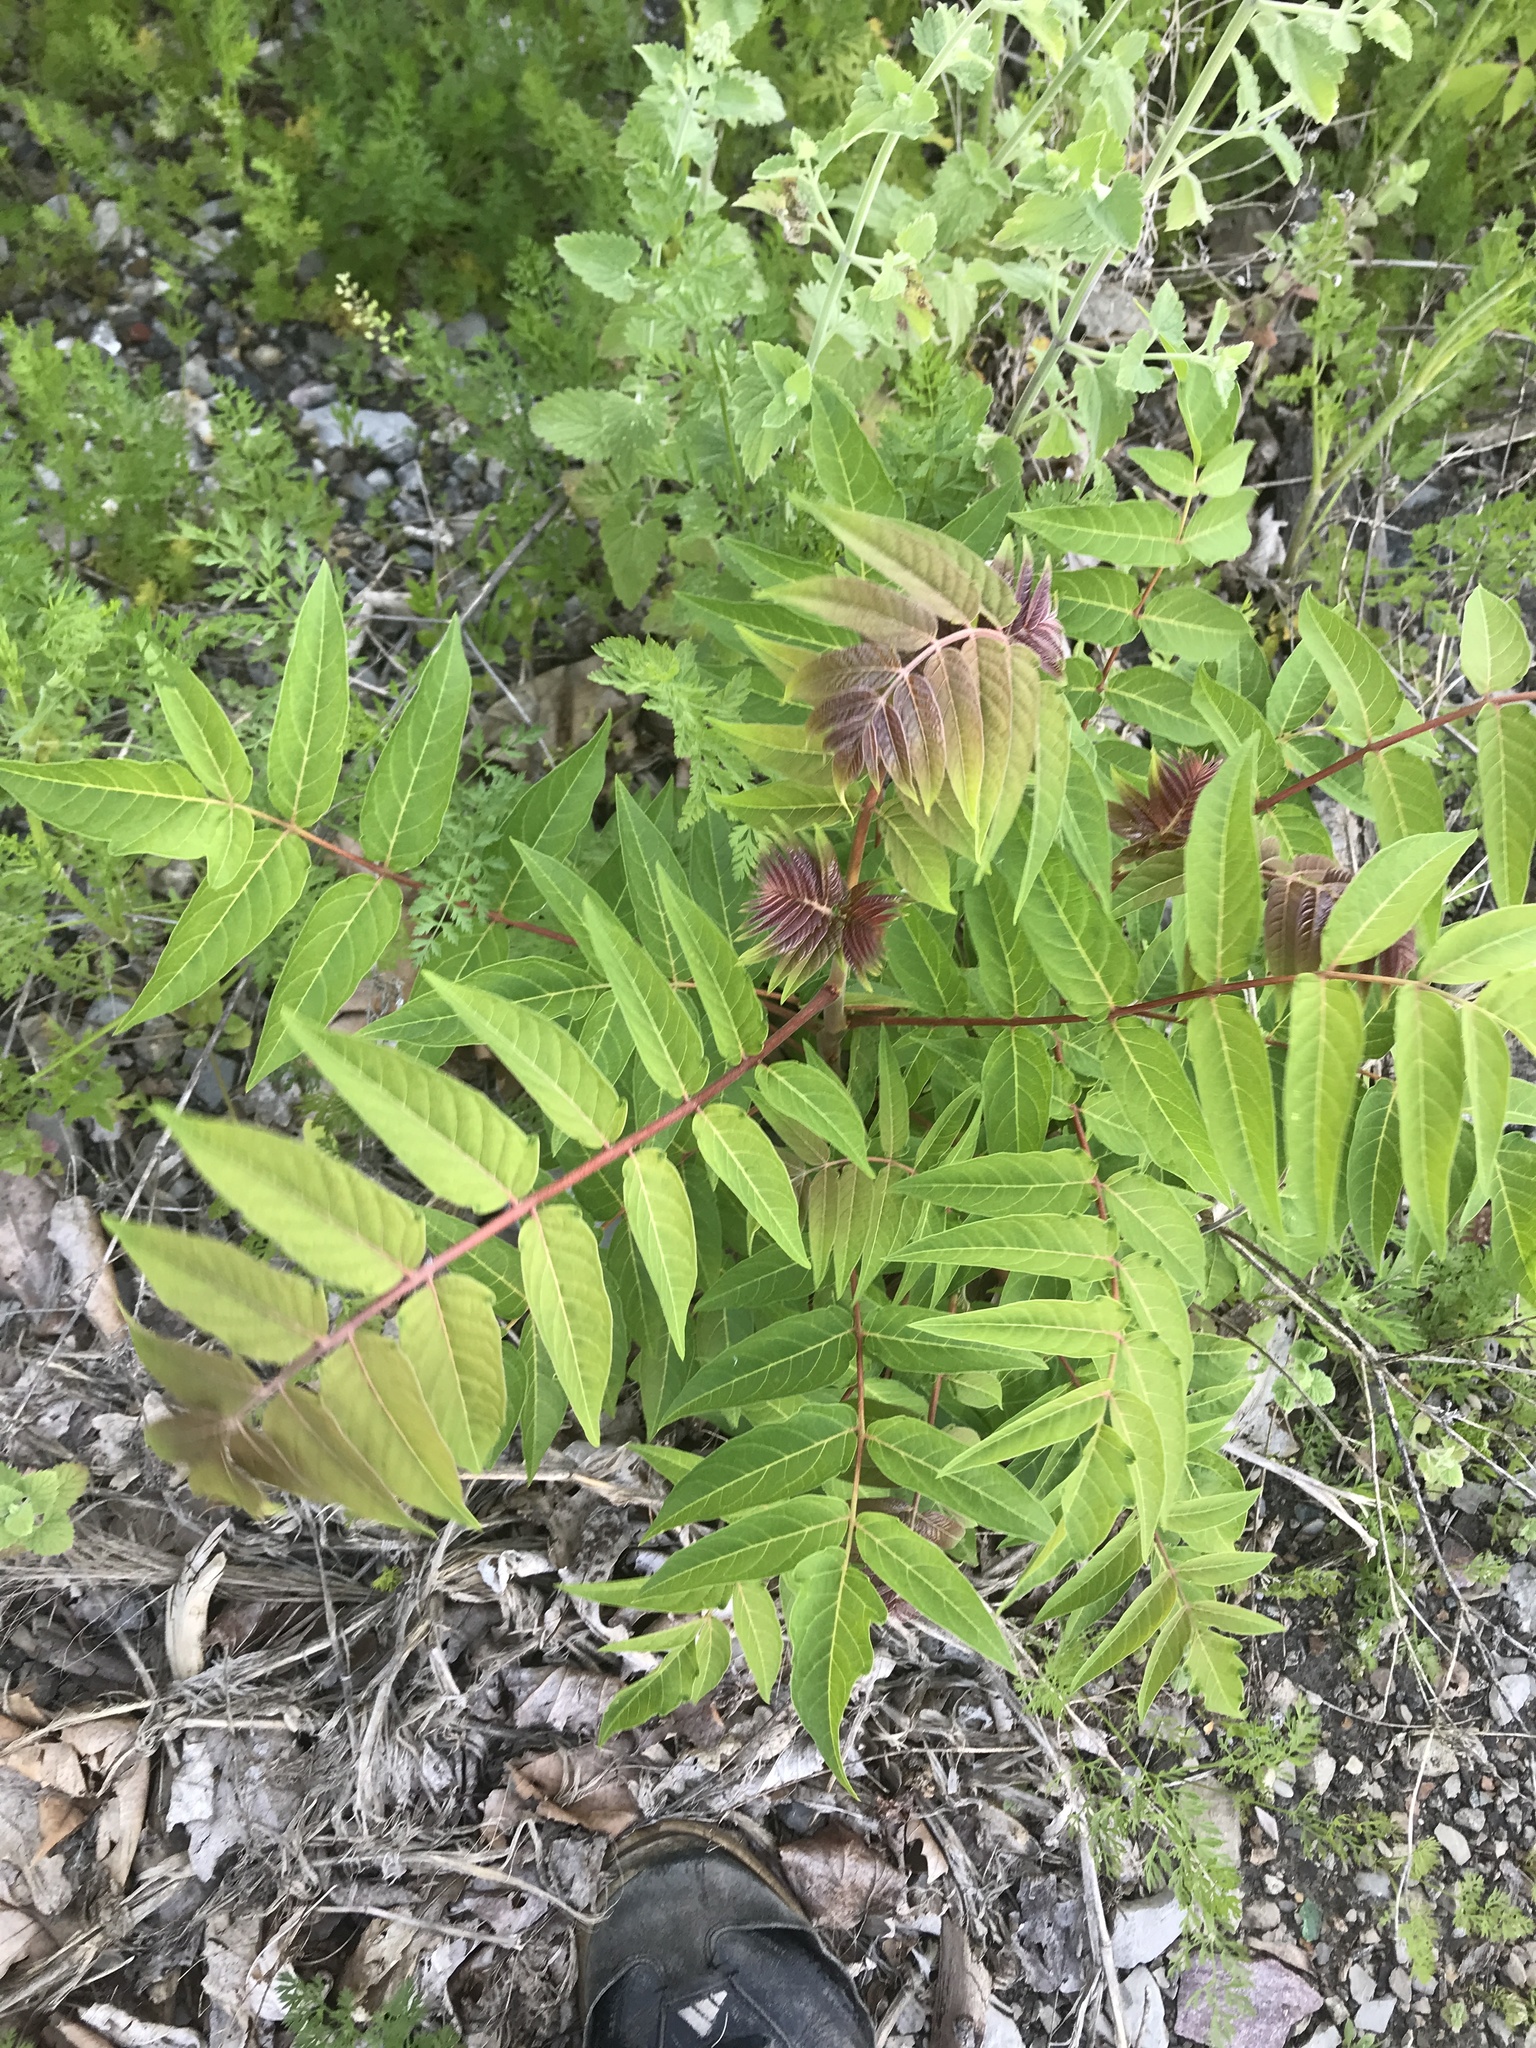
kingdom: Plantae
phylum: Tracheophyta
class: Magnoliopsida
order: Sapindales
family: Simaroubaceae
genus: Ailanthus
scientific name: Ailanthus altissima
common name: Tree-of-heaven
